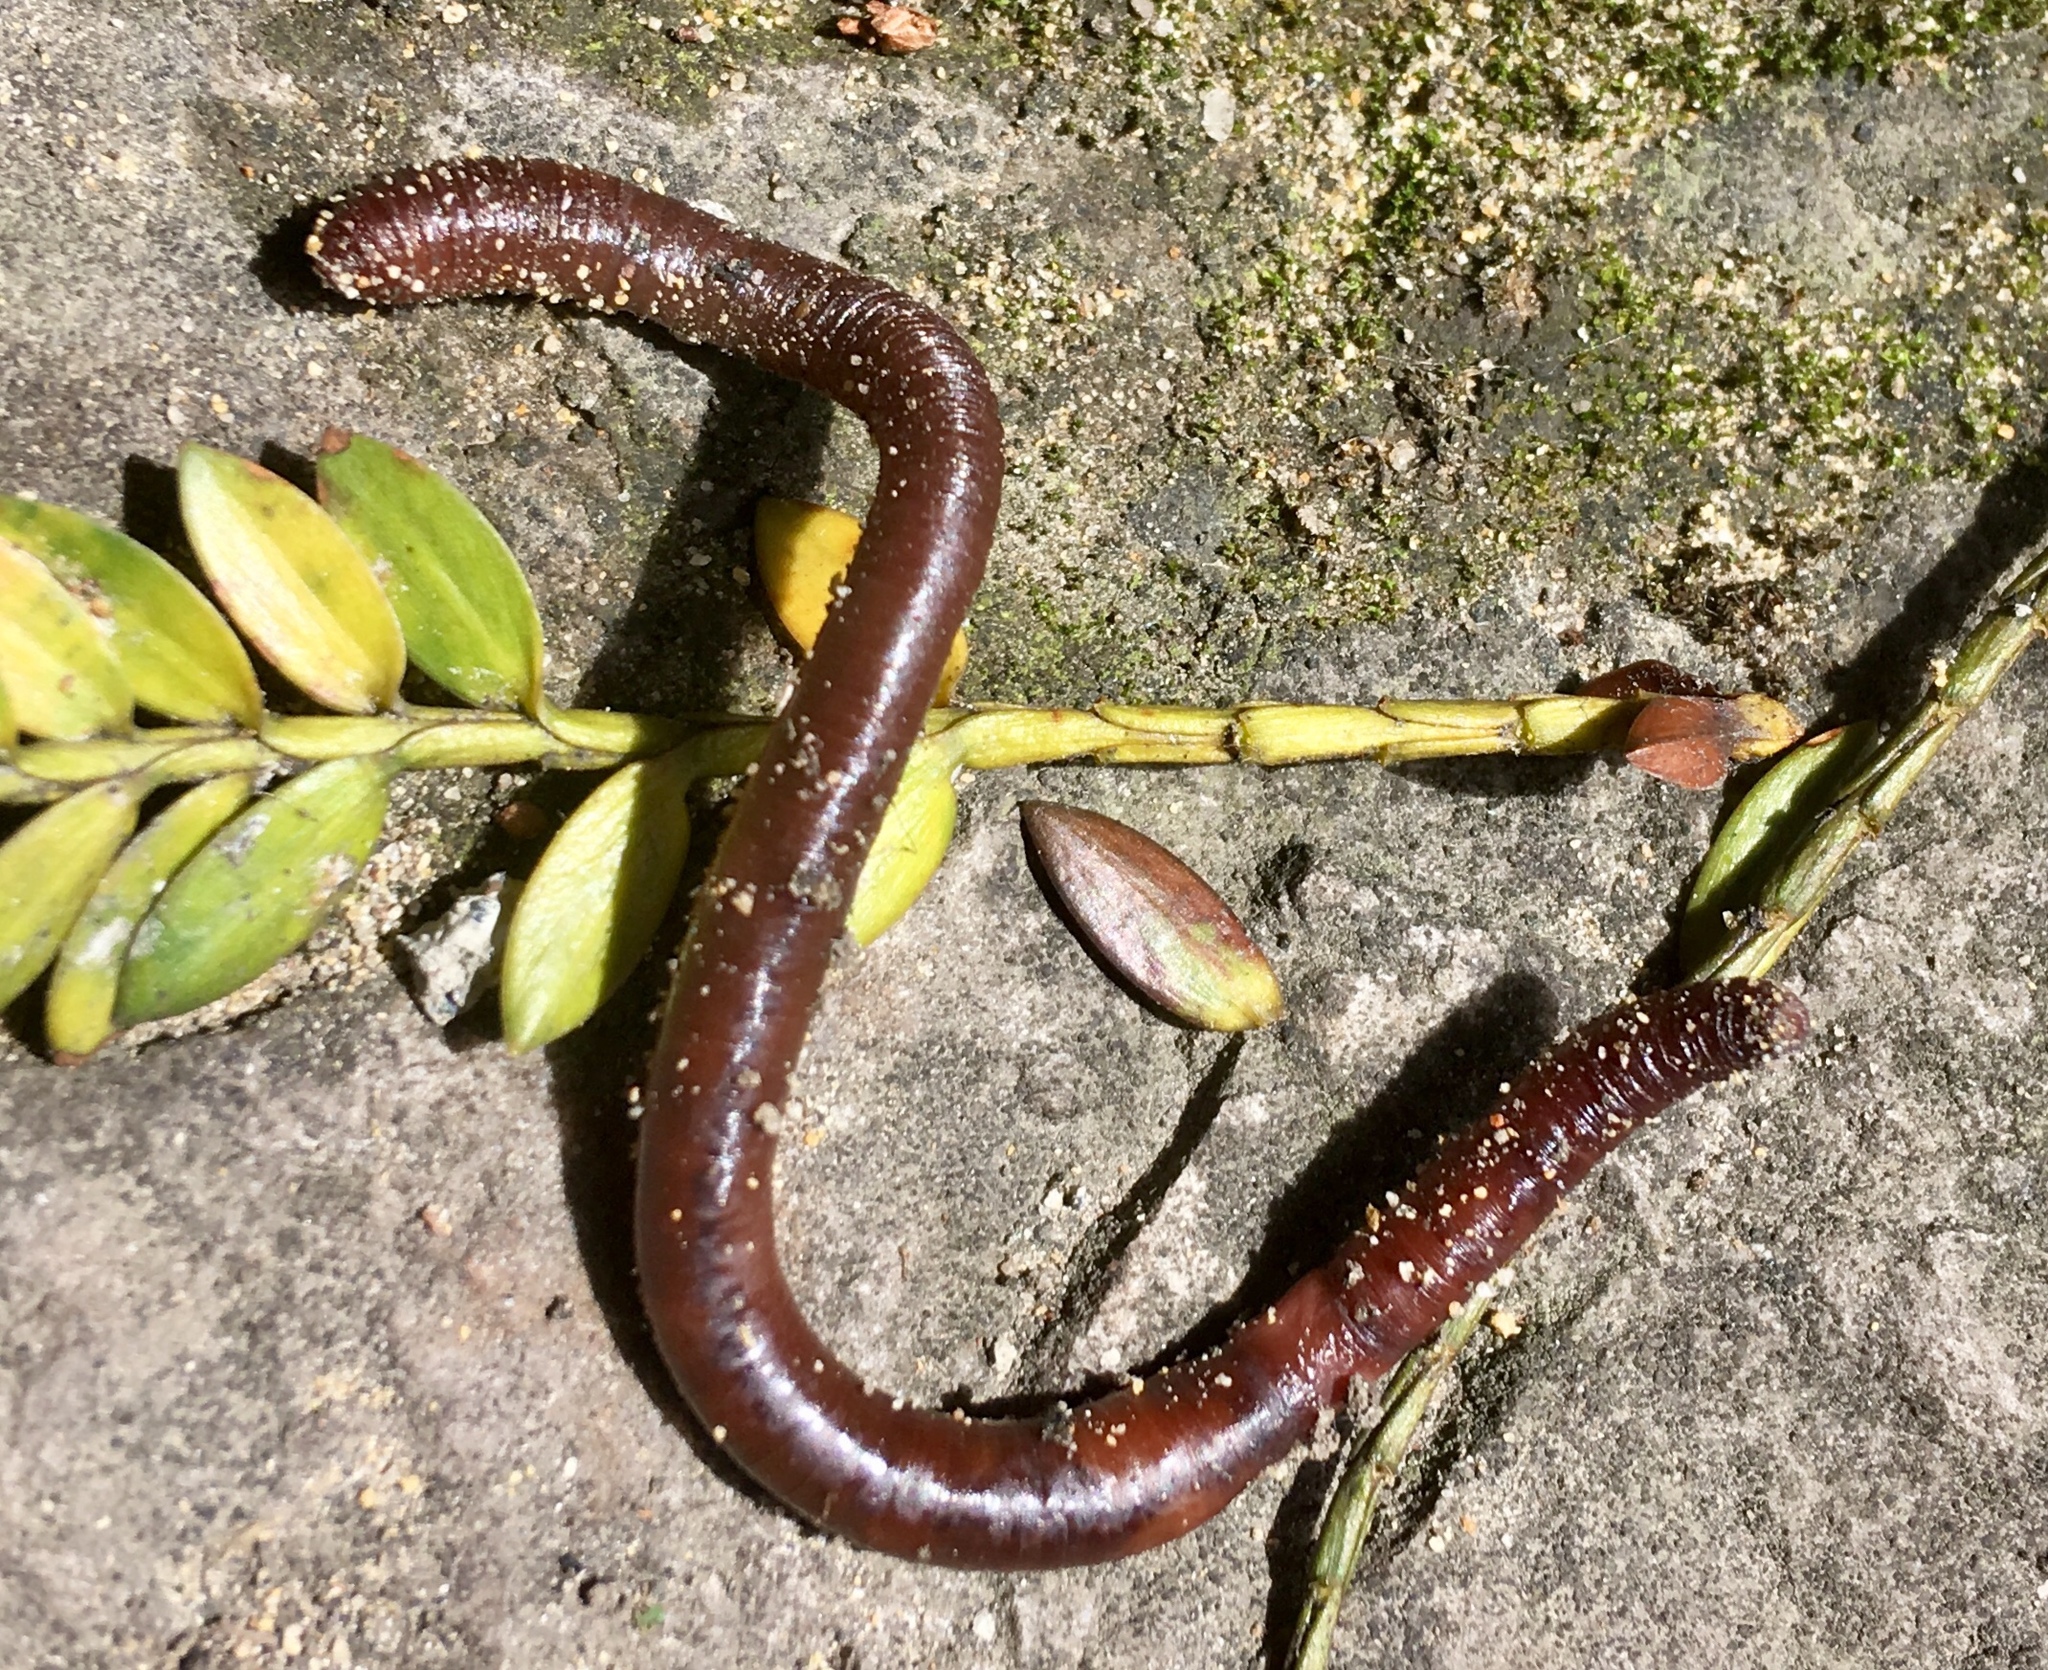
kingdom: Animalia
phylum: Annelida
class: Clitellata
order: Crassiclitellata
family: Lumbricidae
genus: Lumbricus
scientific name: Lumbricus terrestris
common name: Common earthworm
